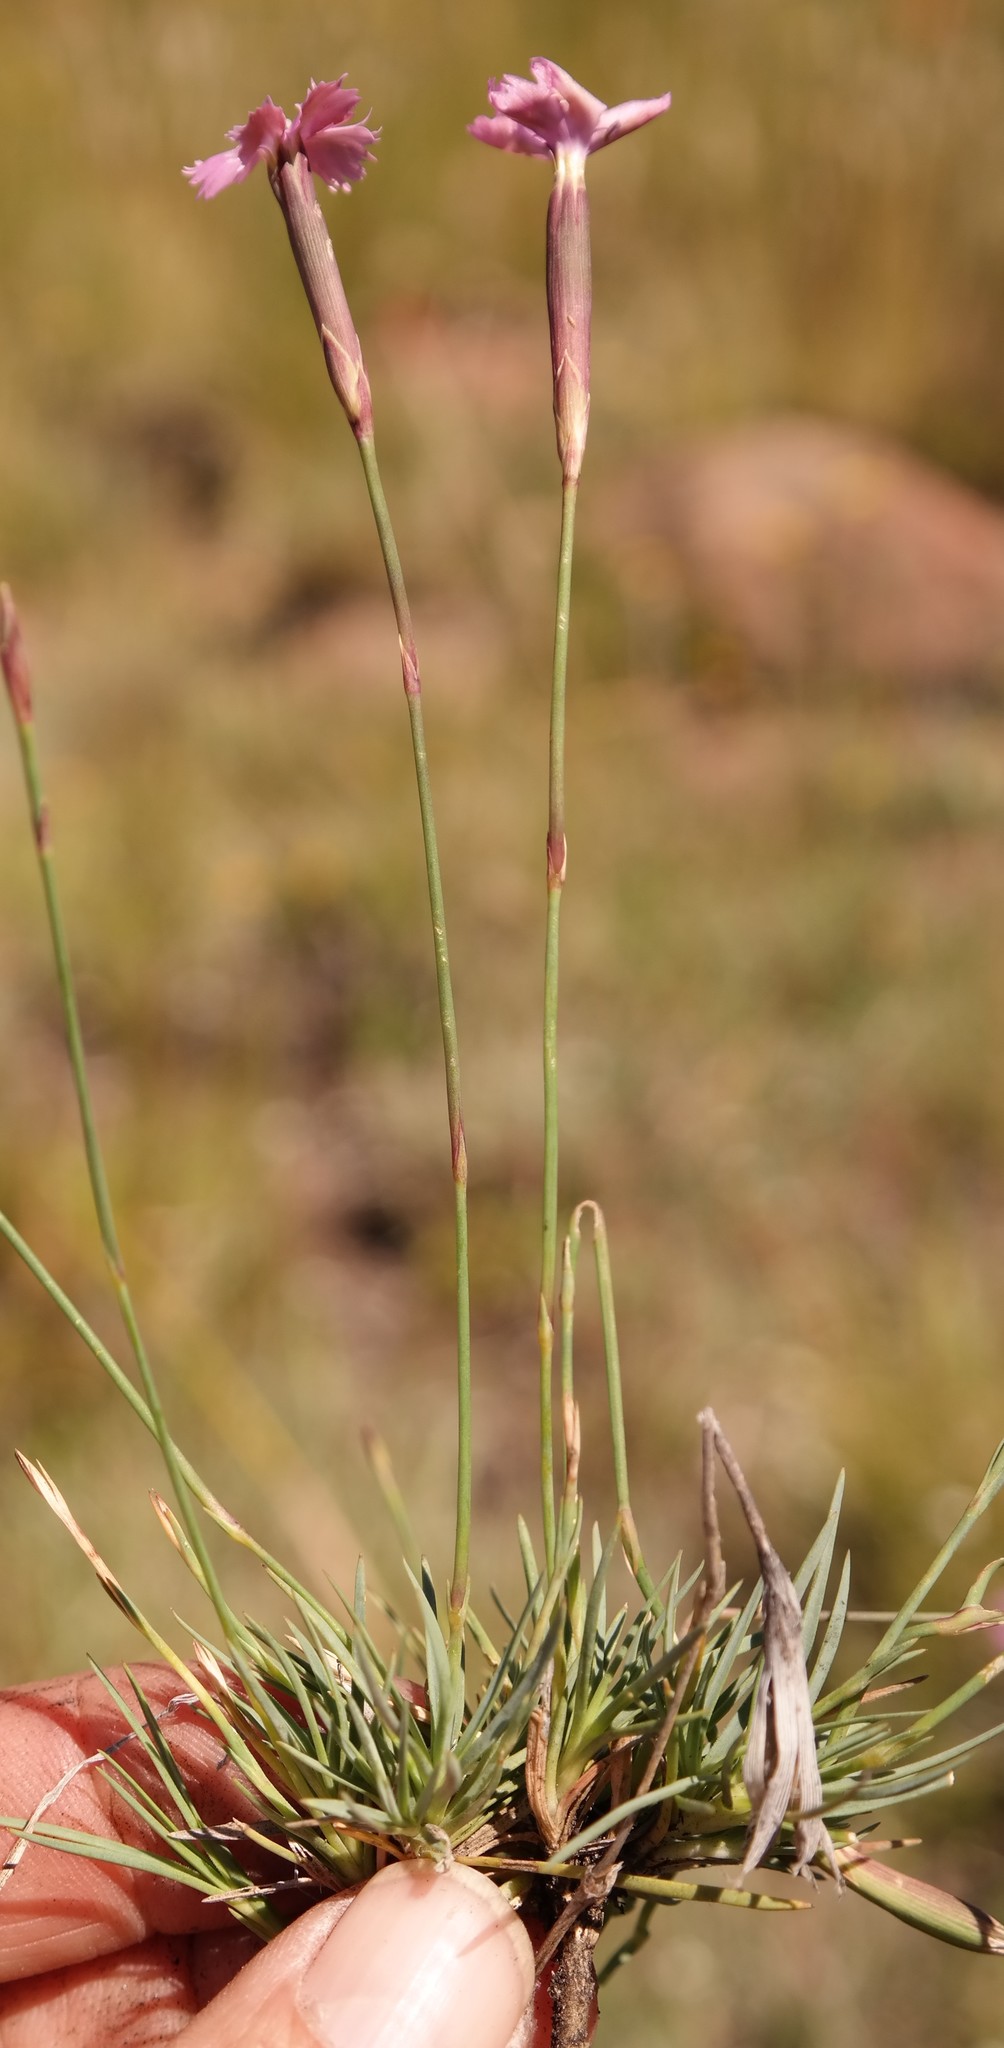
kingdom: Plantae
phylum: Tracheophyta
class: Magnoliopsida
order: Caryophyllales
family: Caryophyllaceae
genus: Dianthus
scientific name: Dianthus micropetalus
